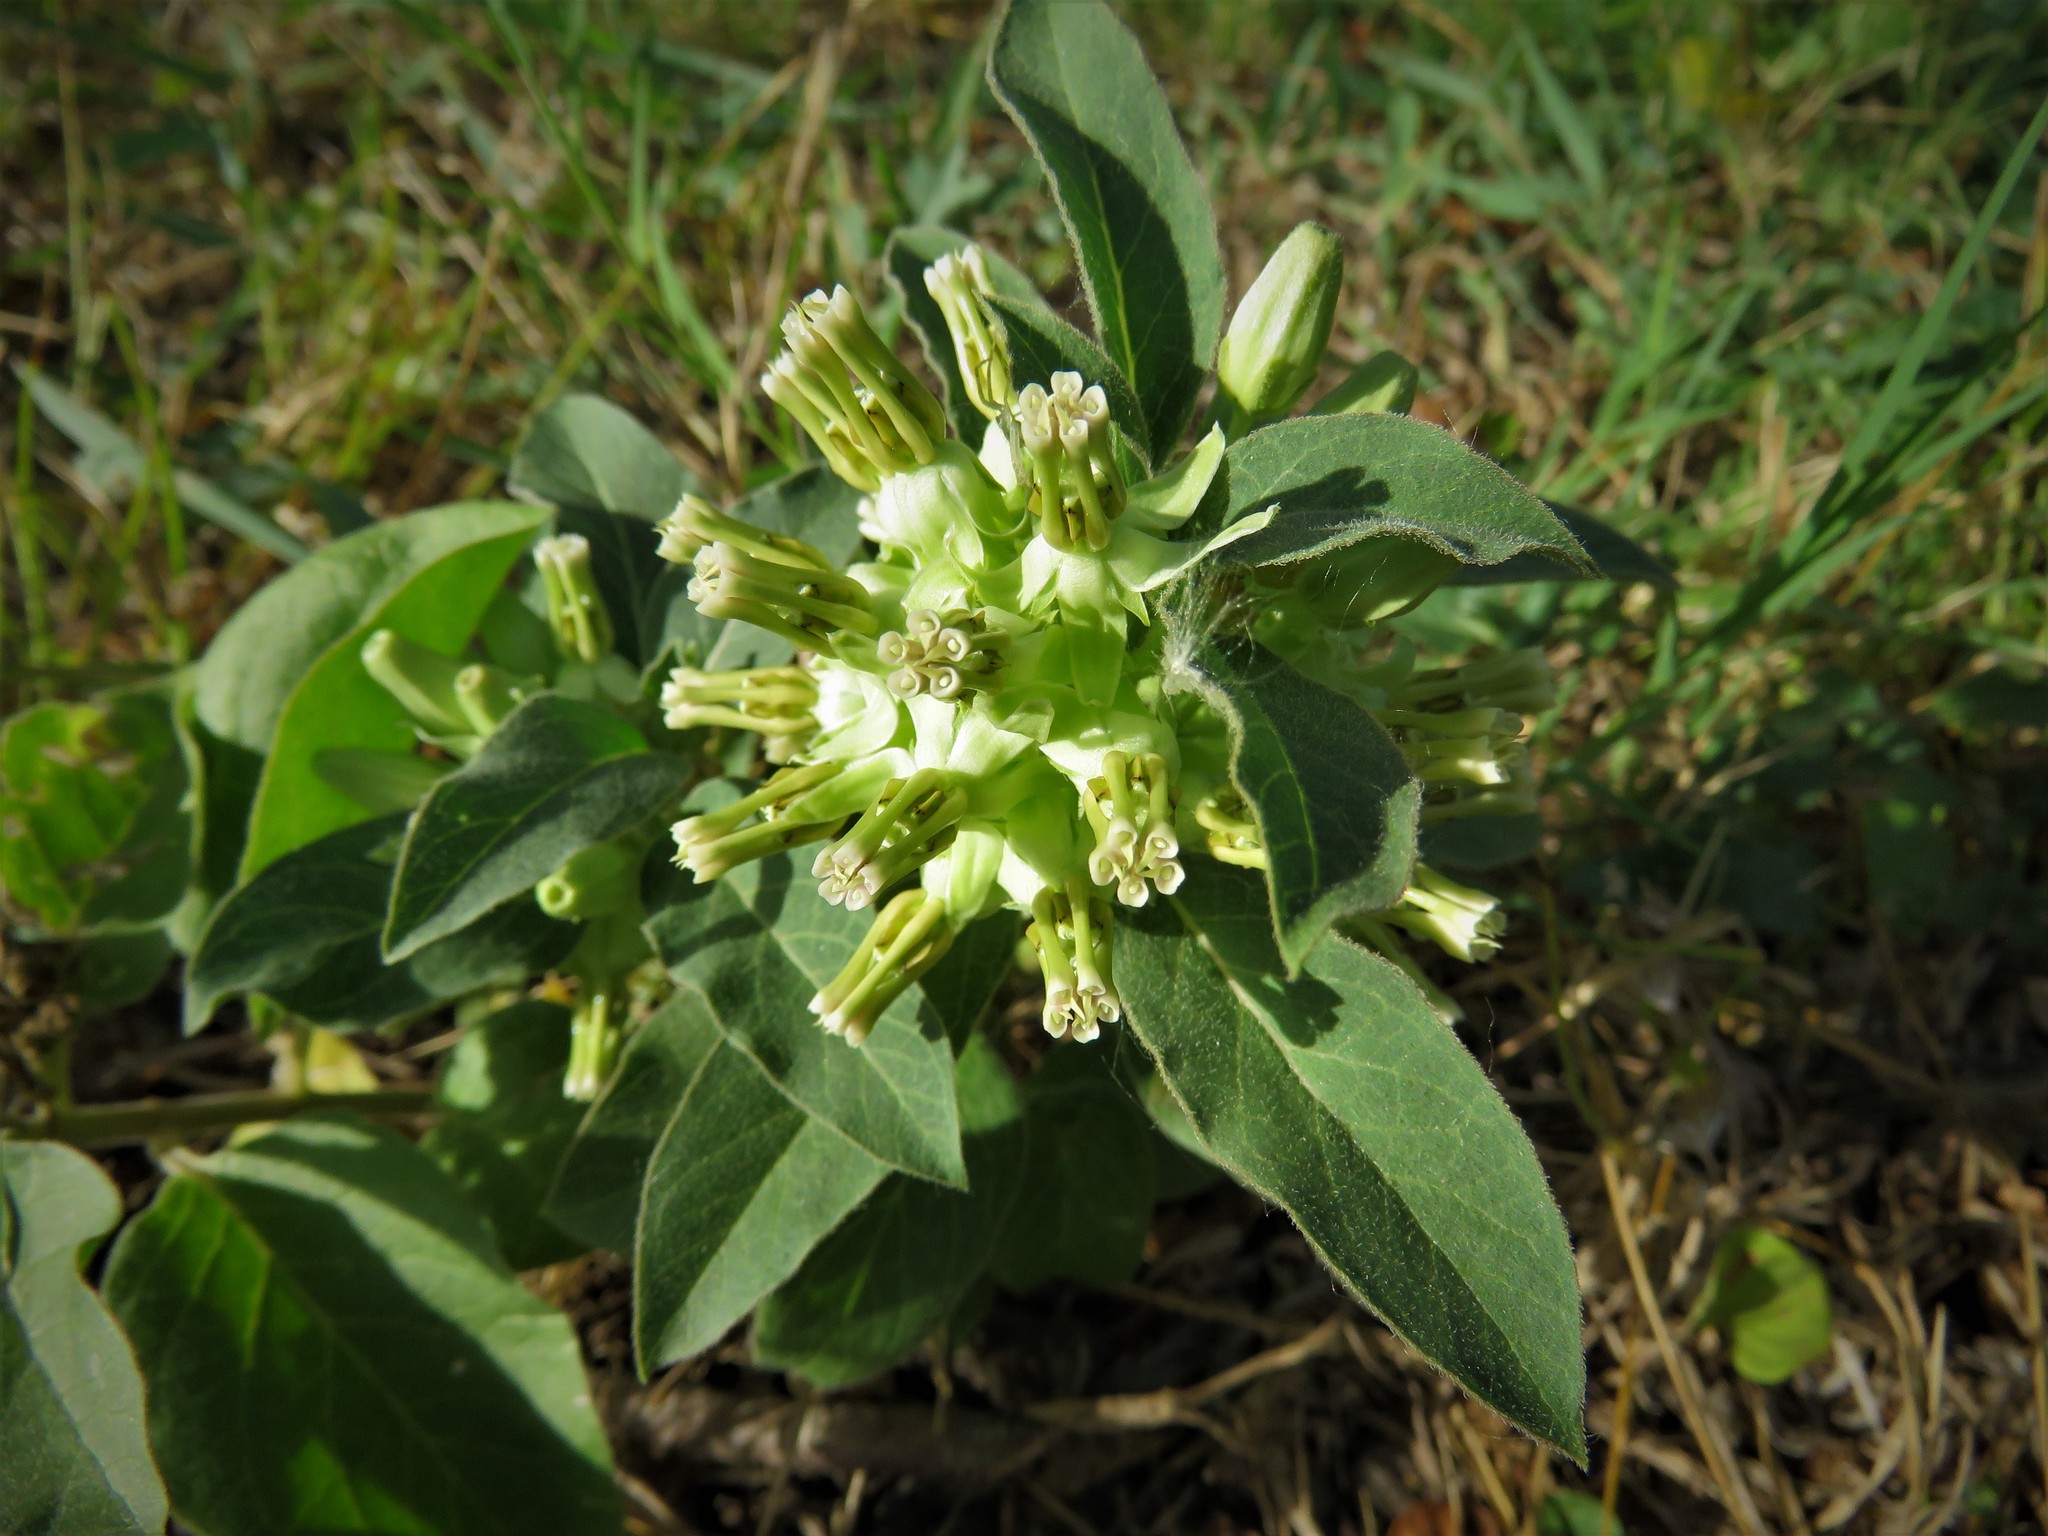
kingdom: Plantae
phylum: Tracheophyta
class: Magnoliopsida
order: Gentianales
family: Apocynaceae
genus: Asclepias
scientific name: Asclepias oenotheroides
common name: Zizotes milkweed
